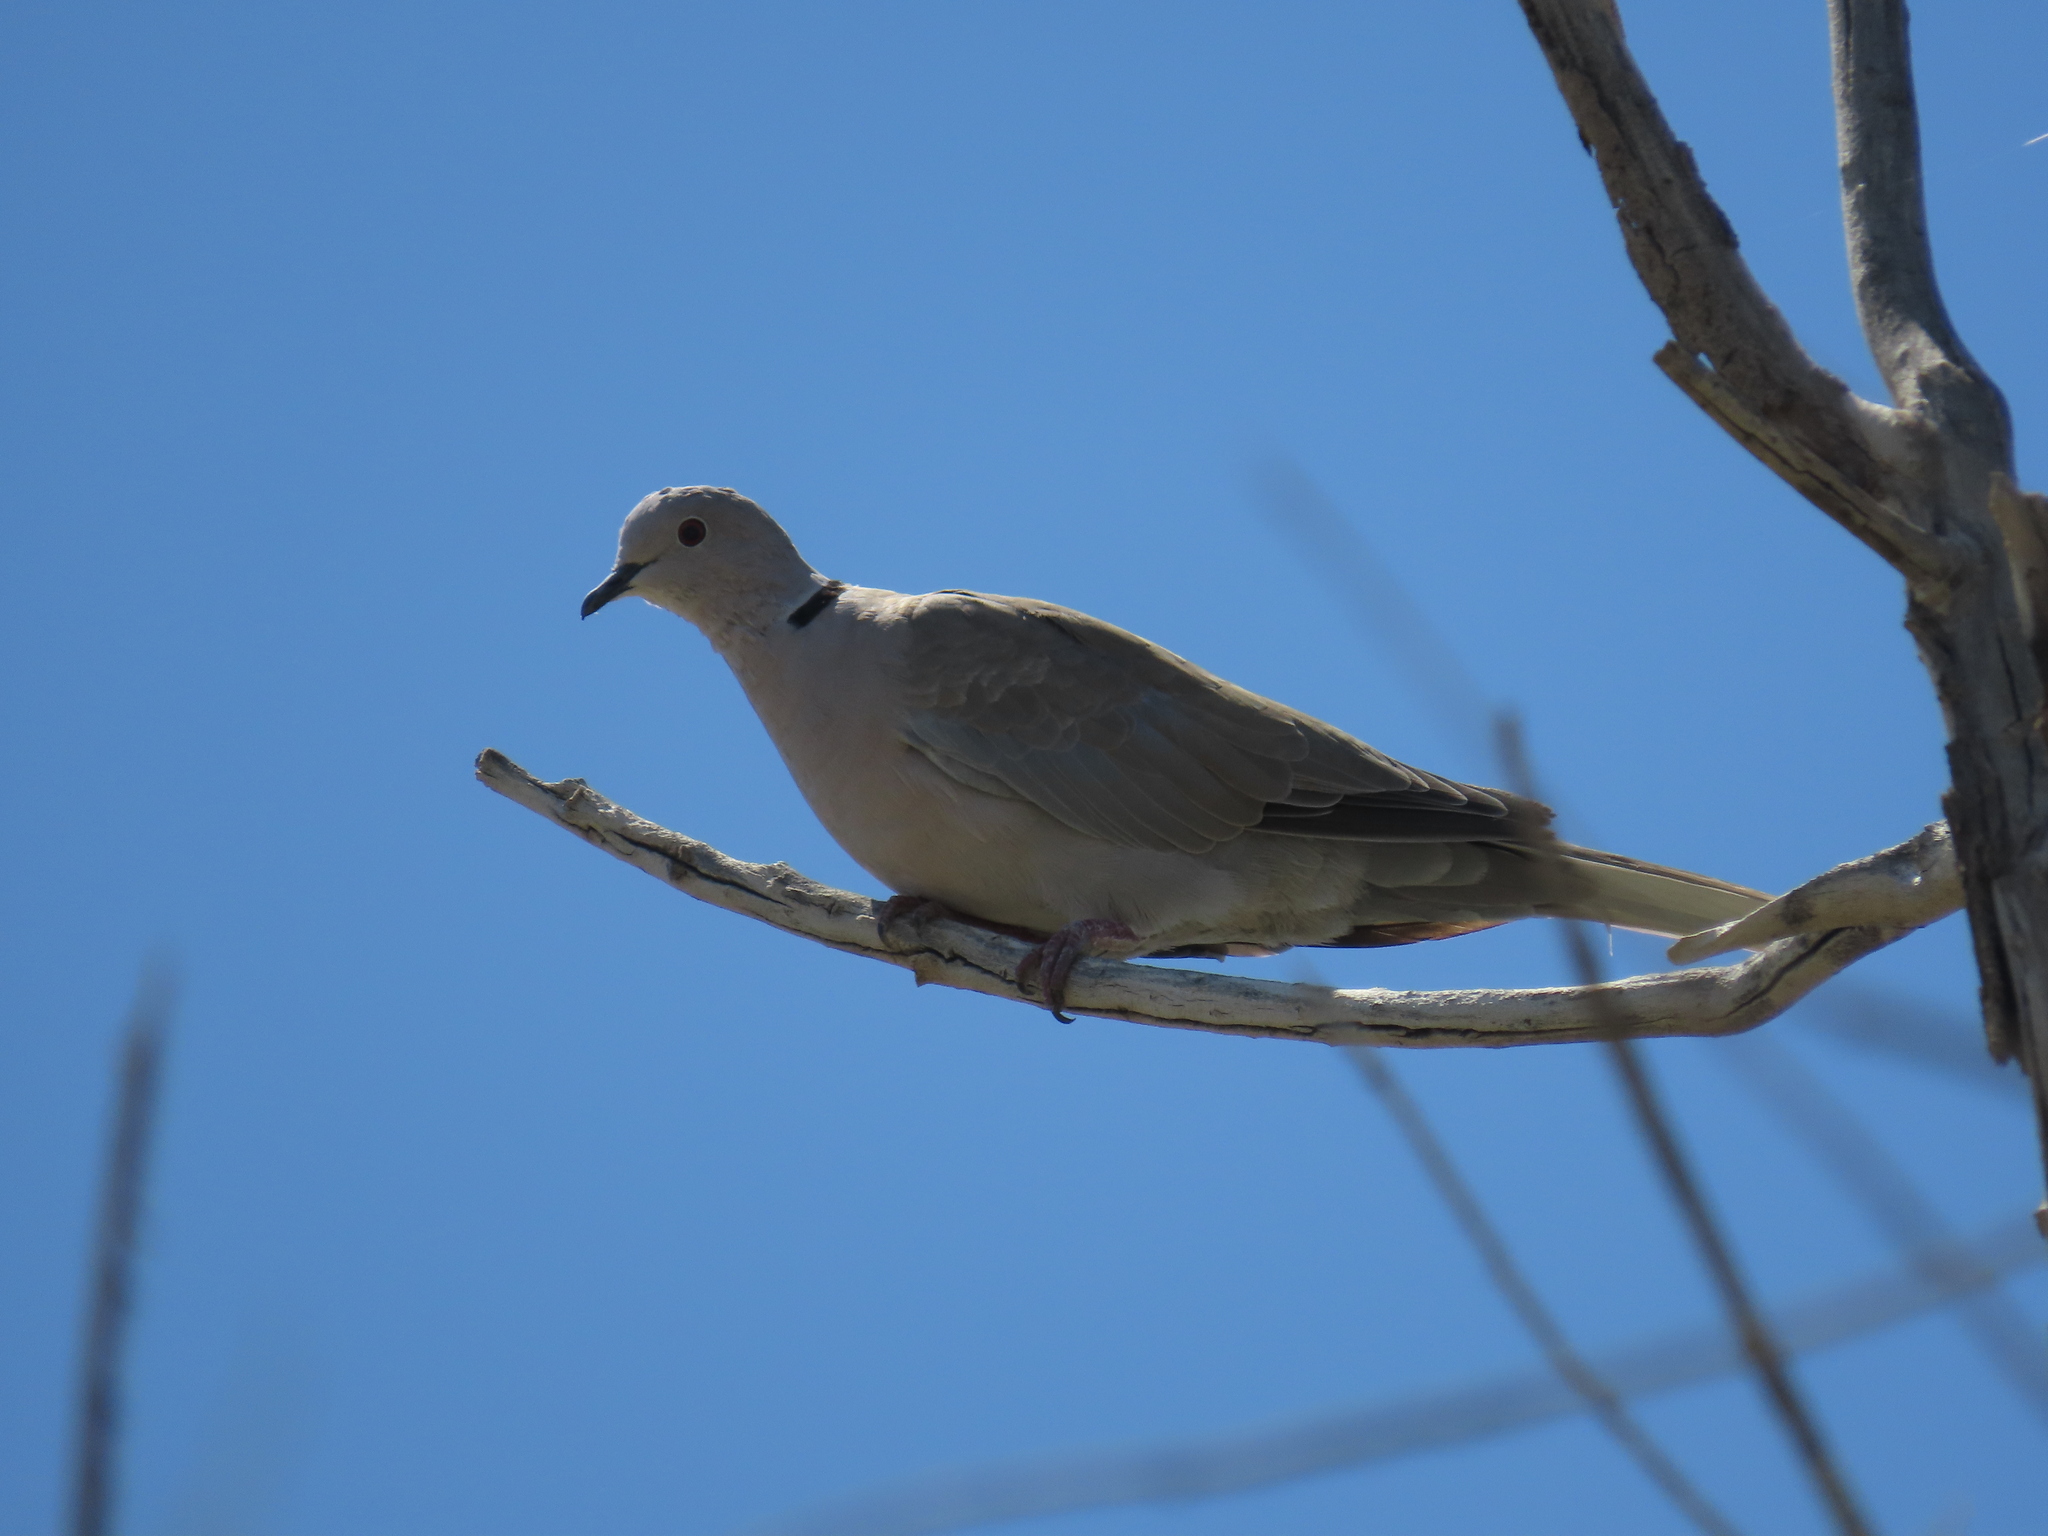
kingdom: Animalia
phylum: Chordata
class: Aves
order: Columbiformes
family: Columbidae
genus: Streptopelia
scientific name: Streptopelia decaocto
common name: Eurasian collared dove
